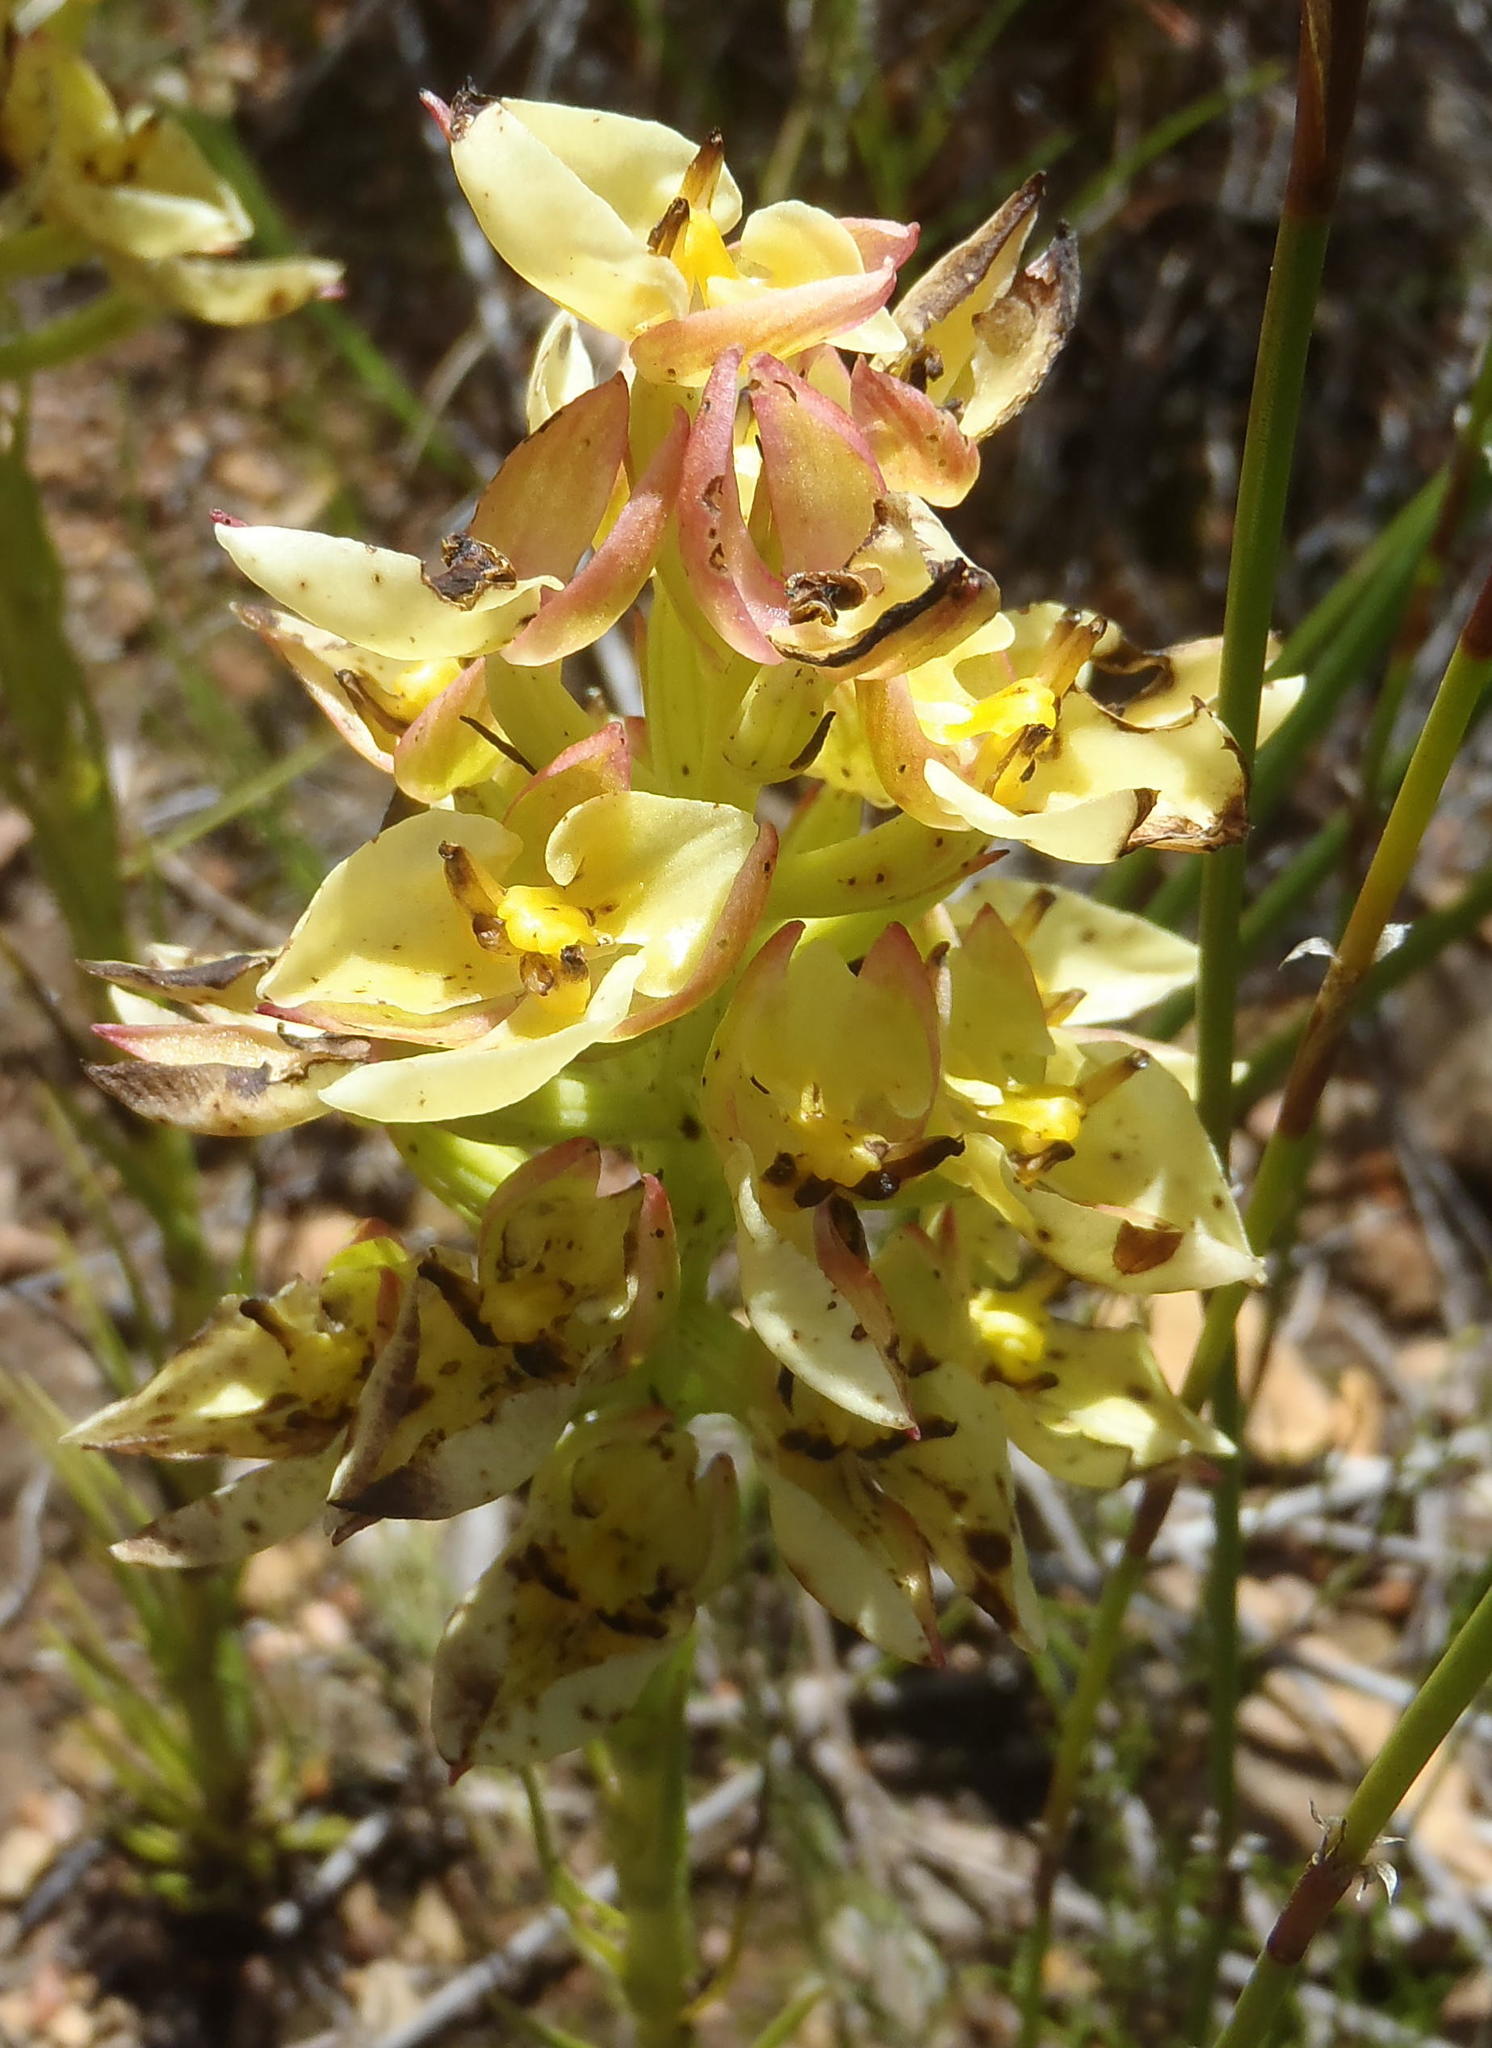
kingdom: Plantae
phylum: Tracheophyta
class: Liliopsida
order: Asparagales
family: Orchidaceae
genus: Ceratandra
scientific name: Ceratandra atrata
